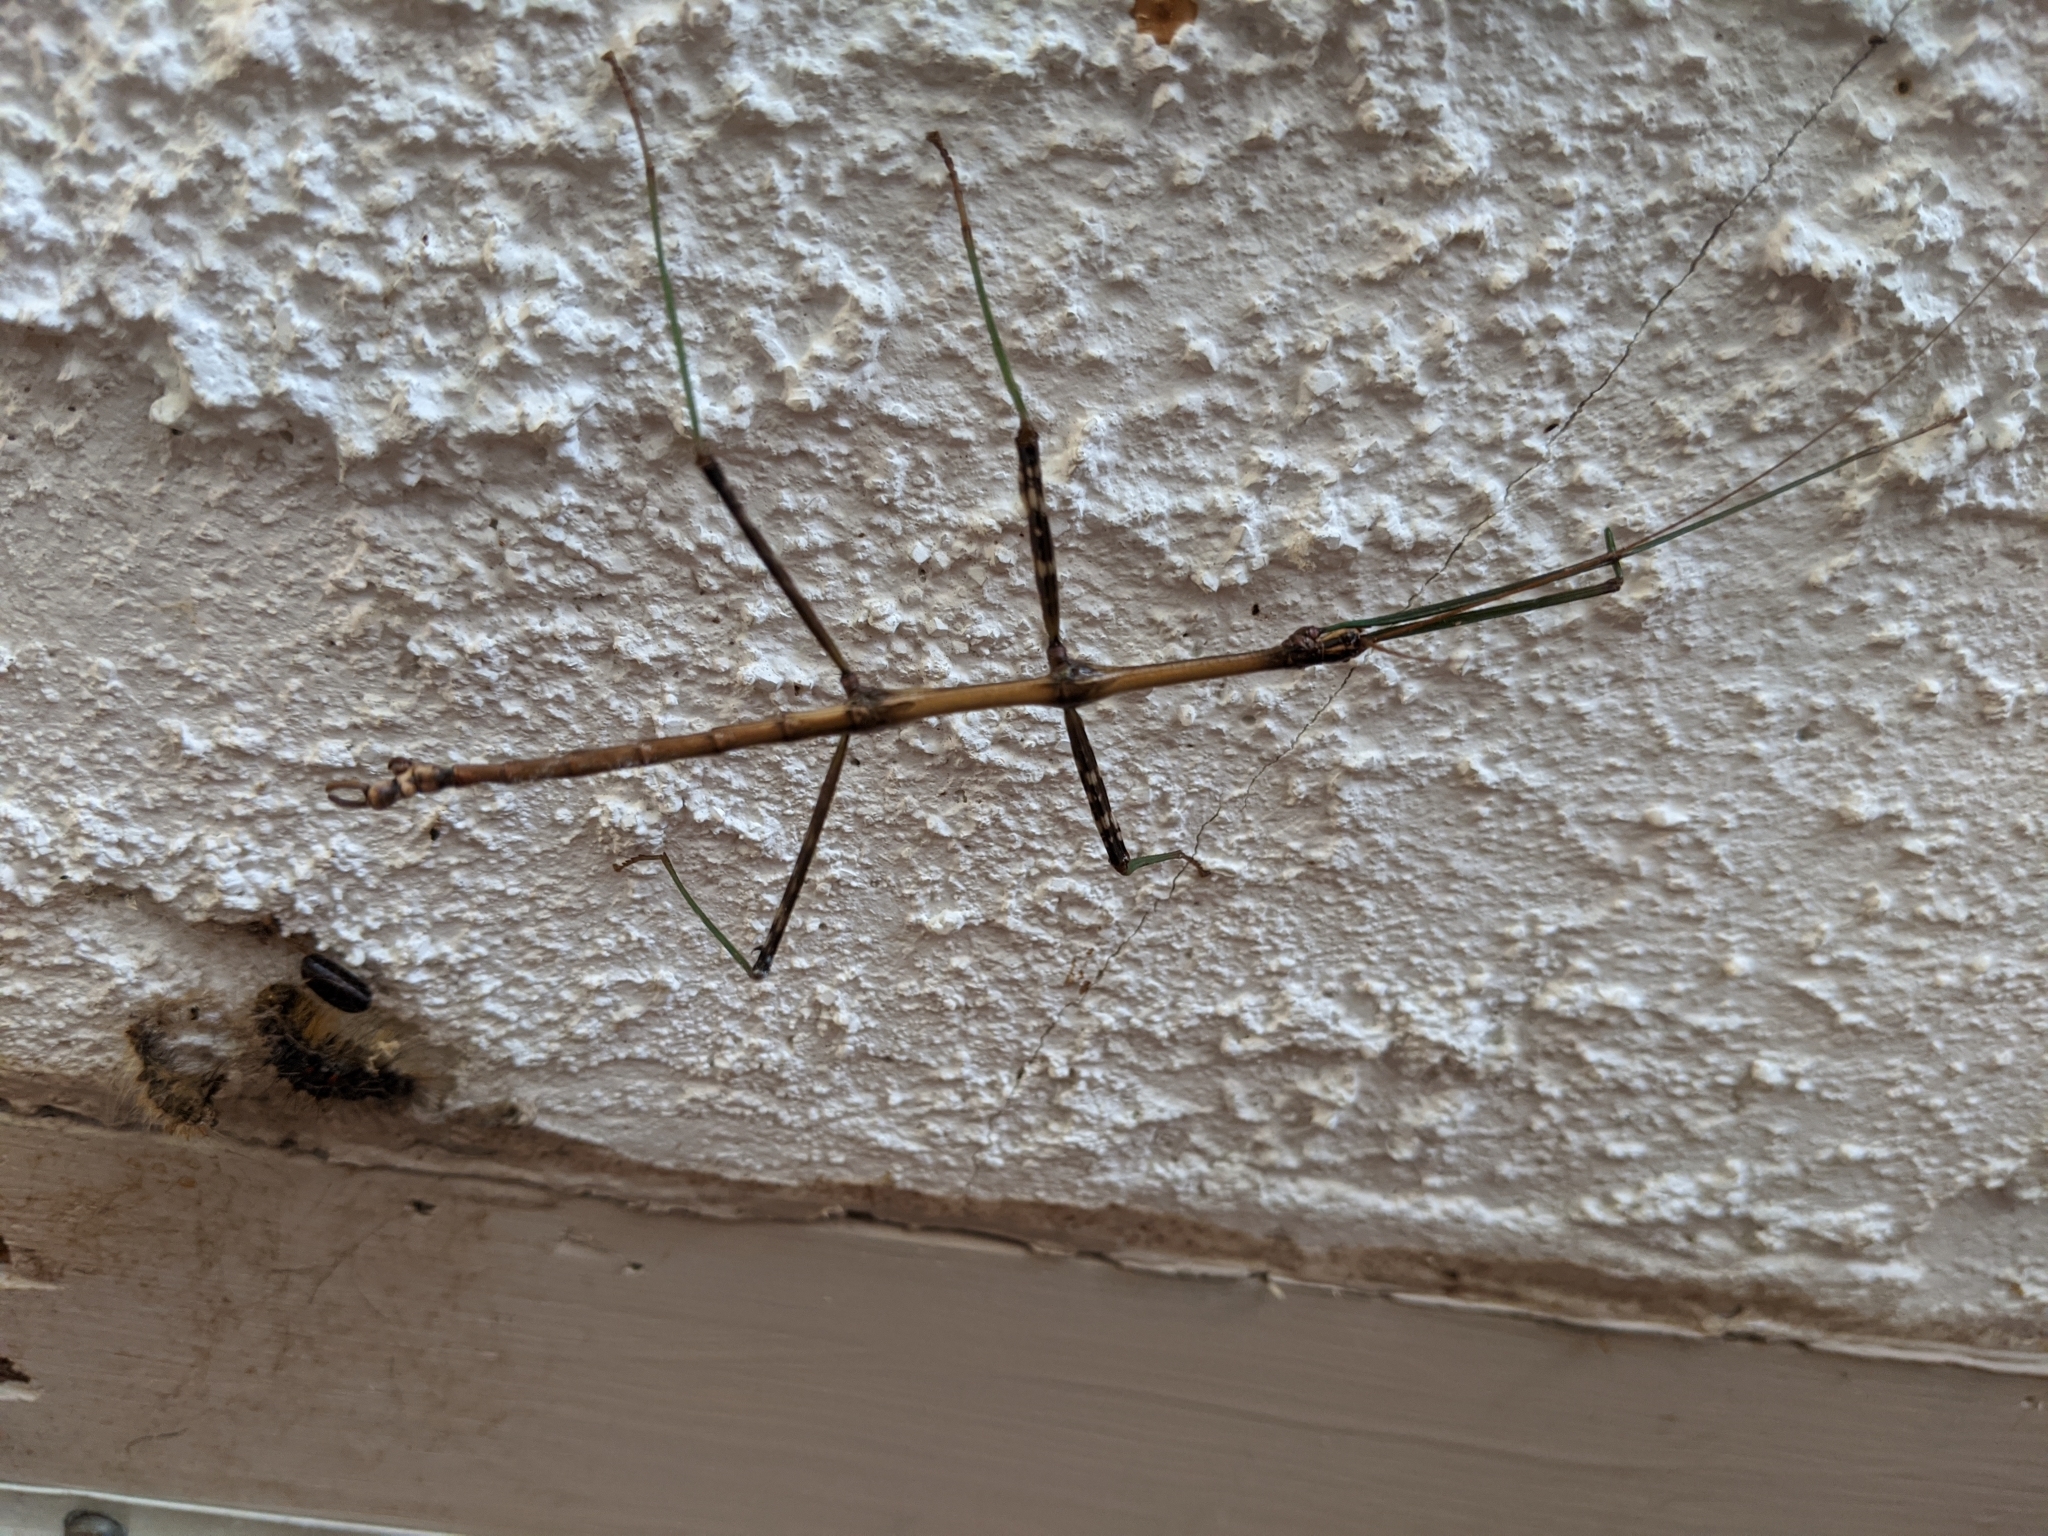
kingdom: Animalia
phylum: Arthropoda
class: Insecta
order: Phasmida
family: Diapheromeridae
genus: Diapheromera
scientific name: Diapheromera femorata
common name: Common american walkingstick
